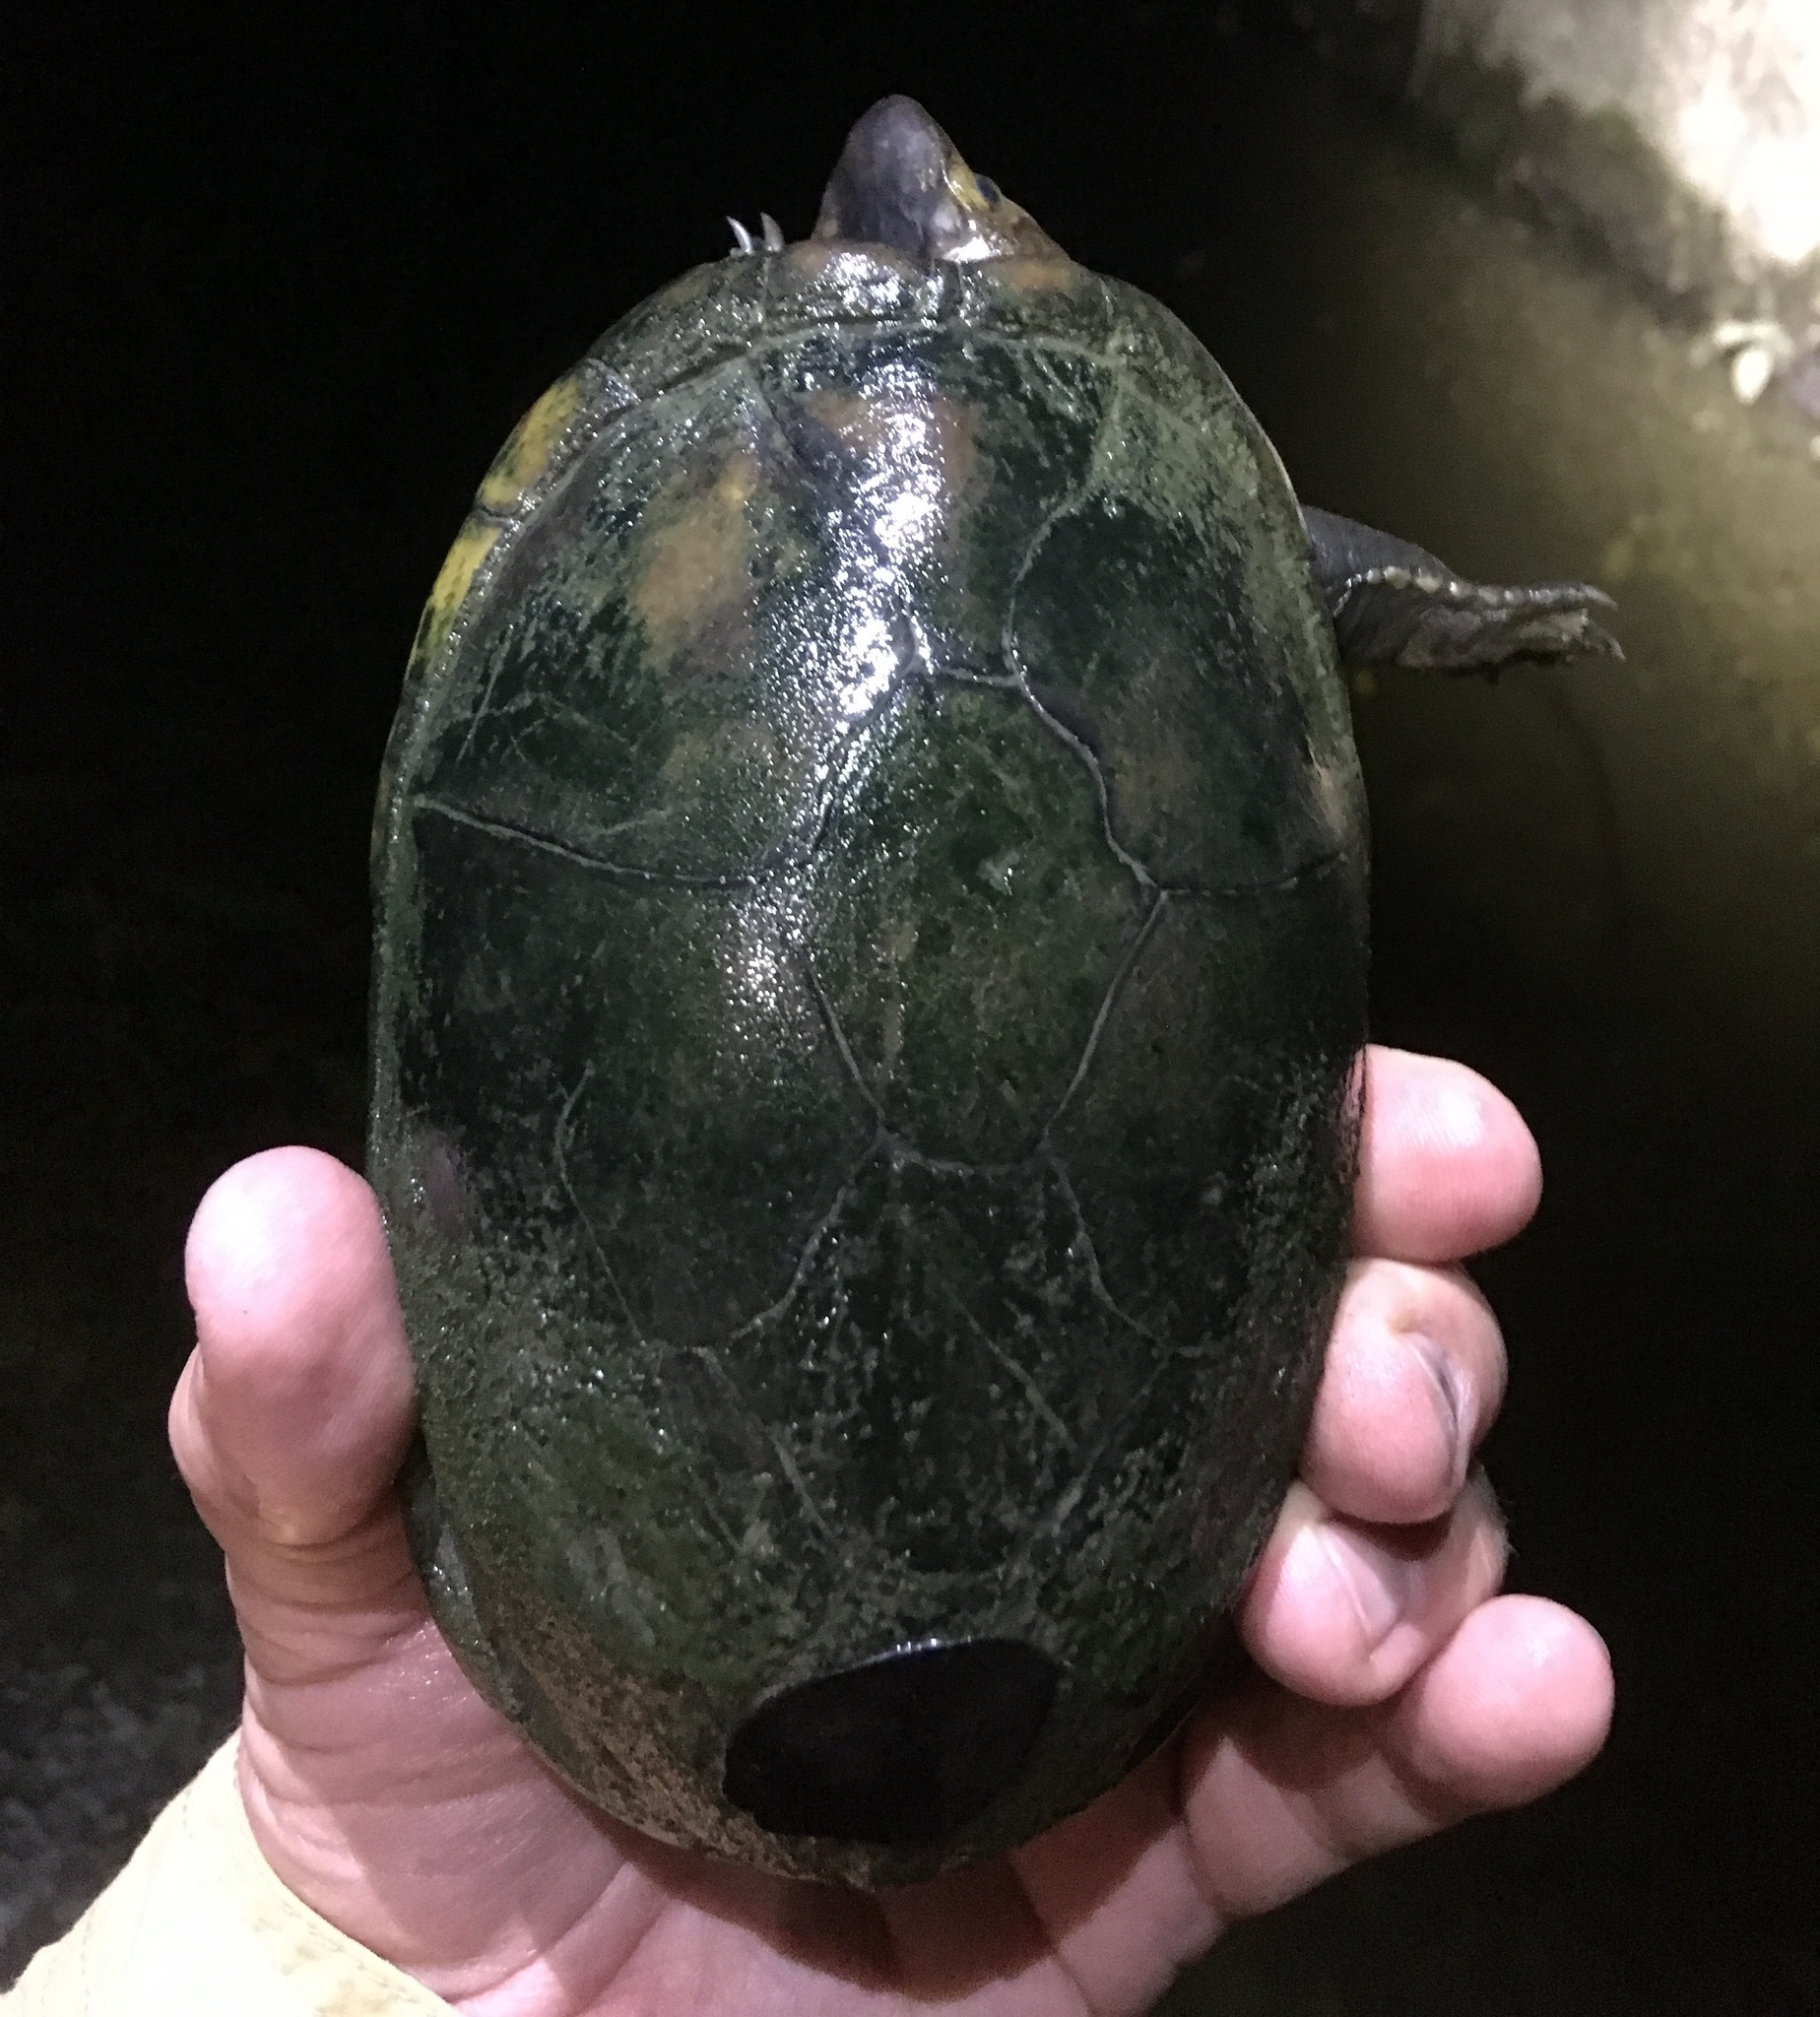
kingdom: Animalia
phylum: Chordata
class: Testudines
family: Kinosternidae
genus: Kinosternon
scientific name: Kinosternon leucostomum
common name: White-lipped mud turtle
